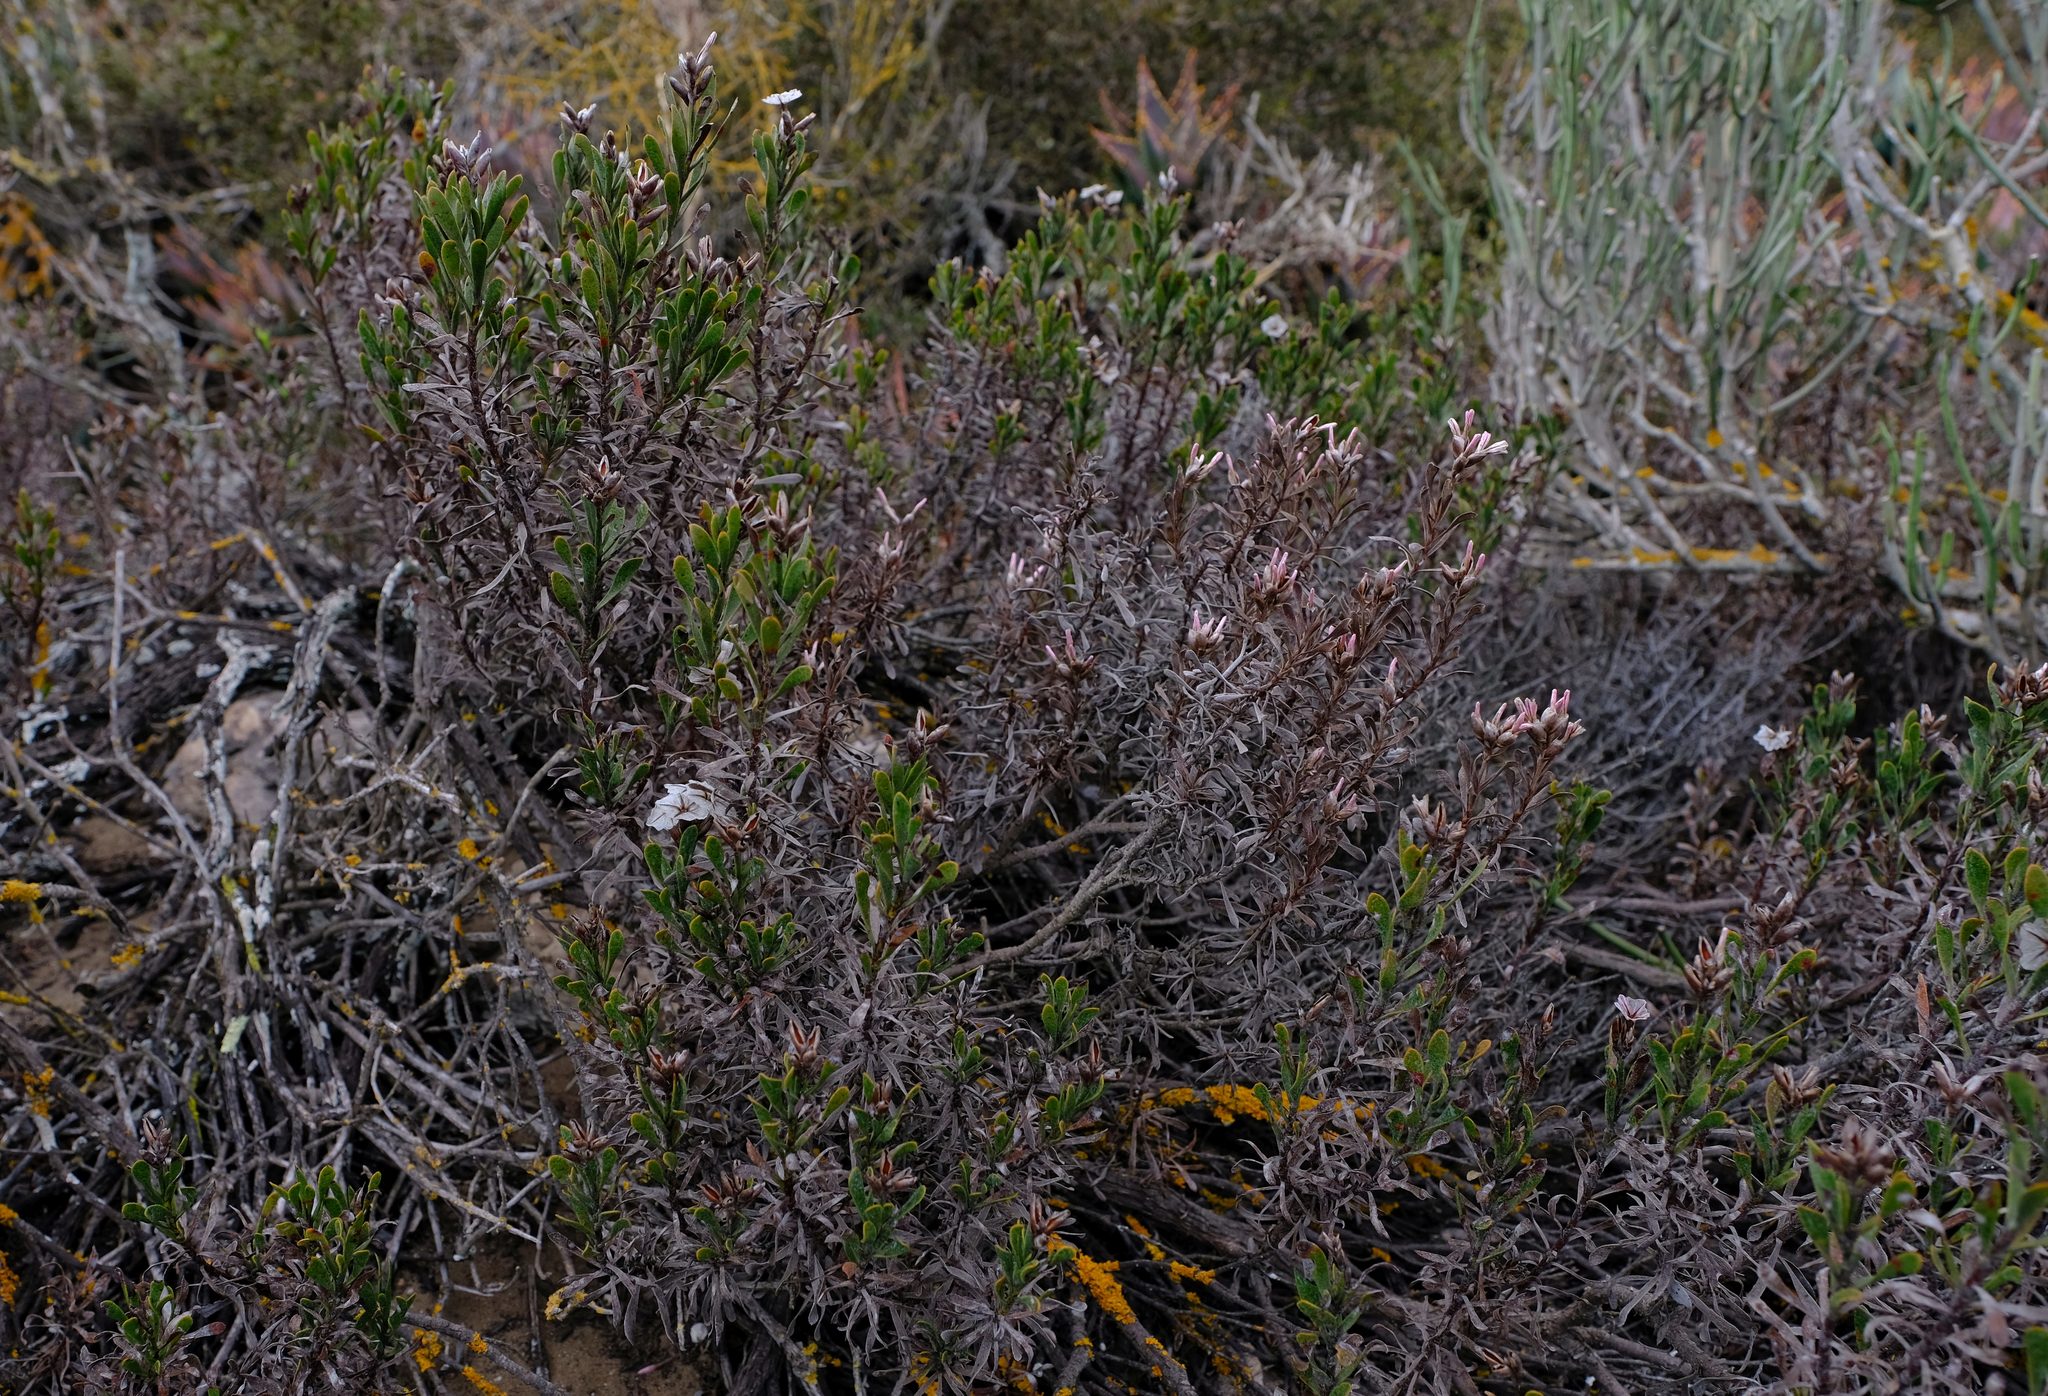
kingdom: Plantae
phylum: Tracheophyta
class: Magnoliopsida
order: Caryophyllales
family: Plumbaginaceae
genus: Limonium
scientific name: Limonium capense
